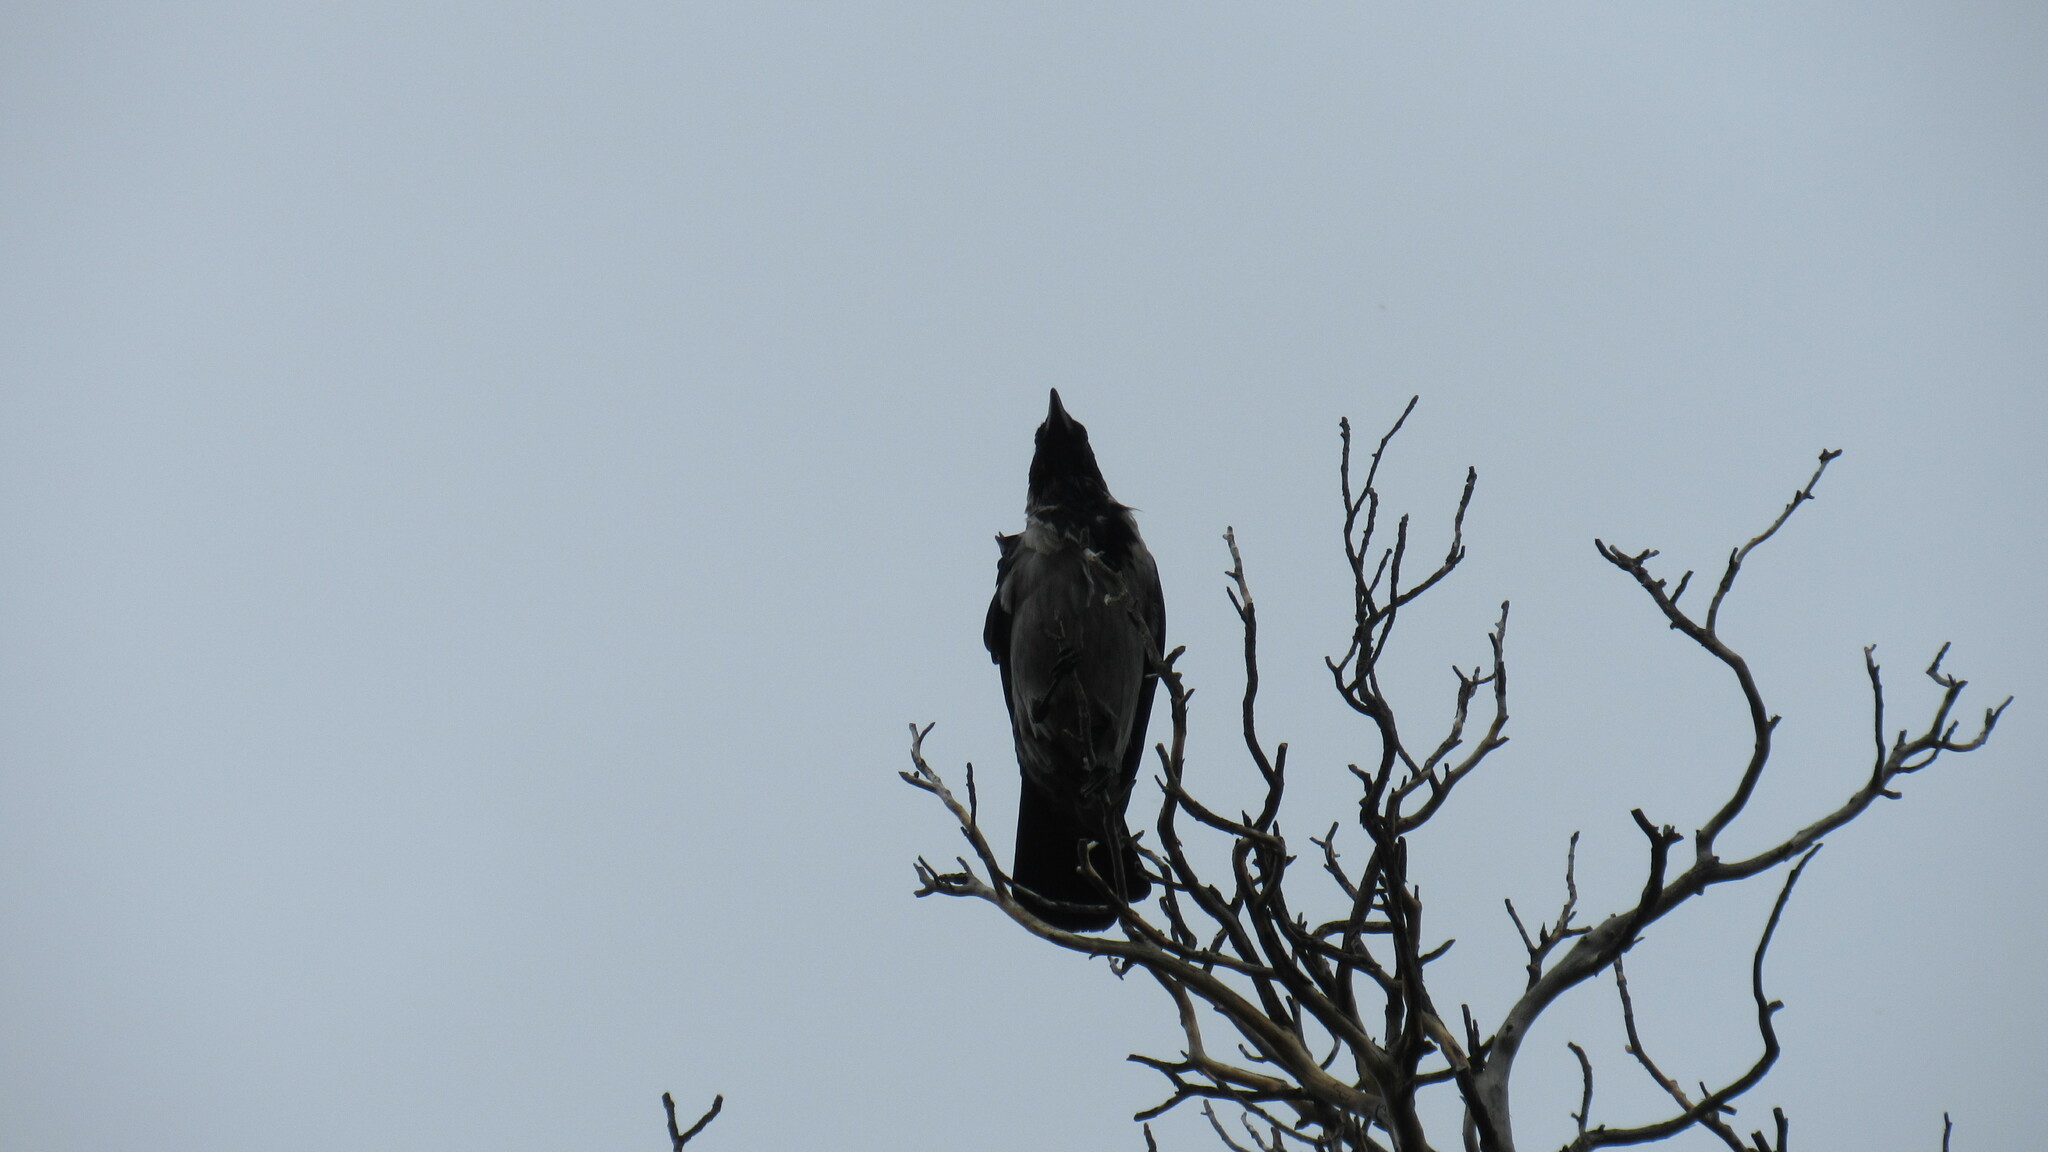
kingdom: Animalia
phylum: Chordata
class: Aves
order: Passeriformes
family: Corvidae
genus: Corvus
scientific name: Corvus cornix
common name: Hooded crow
